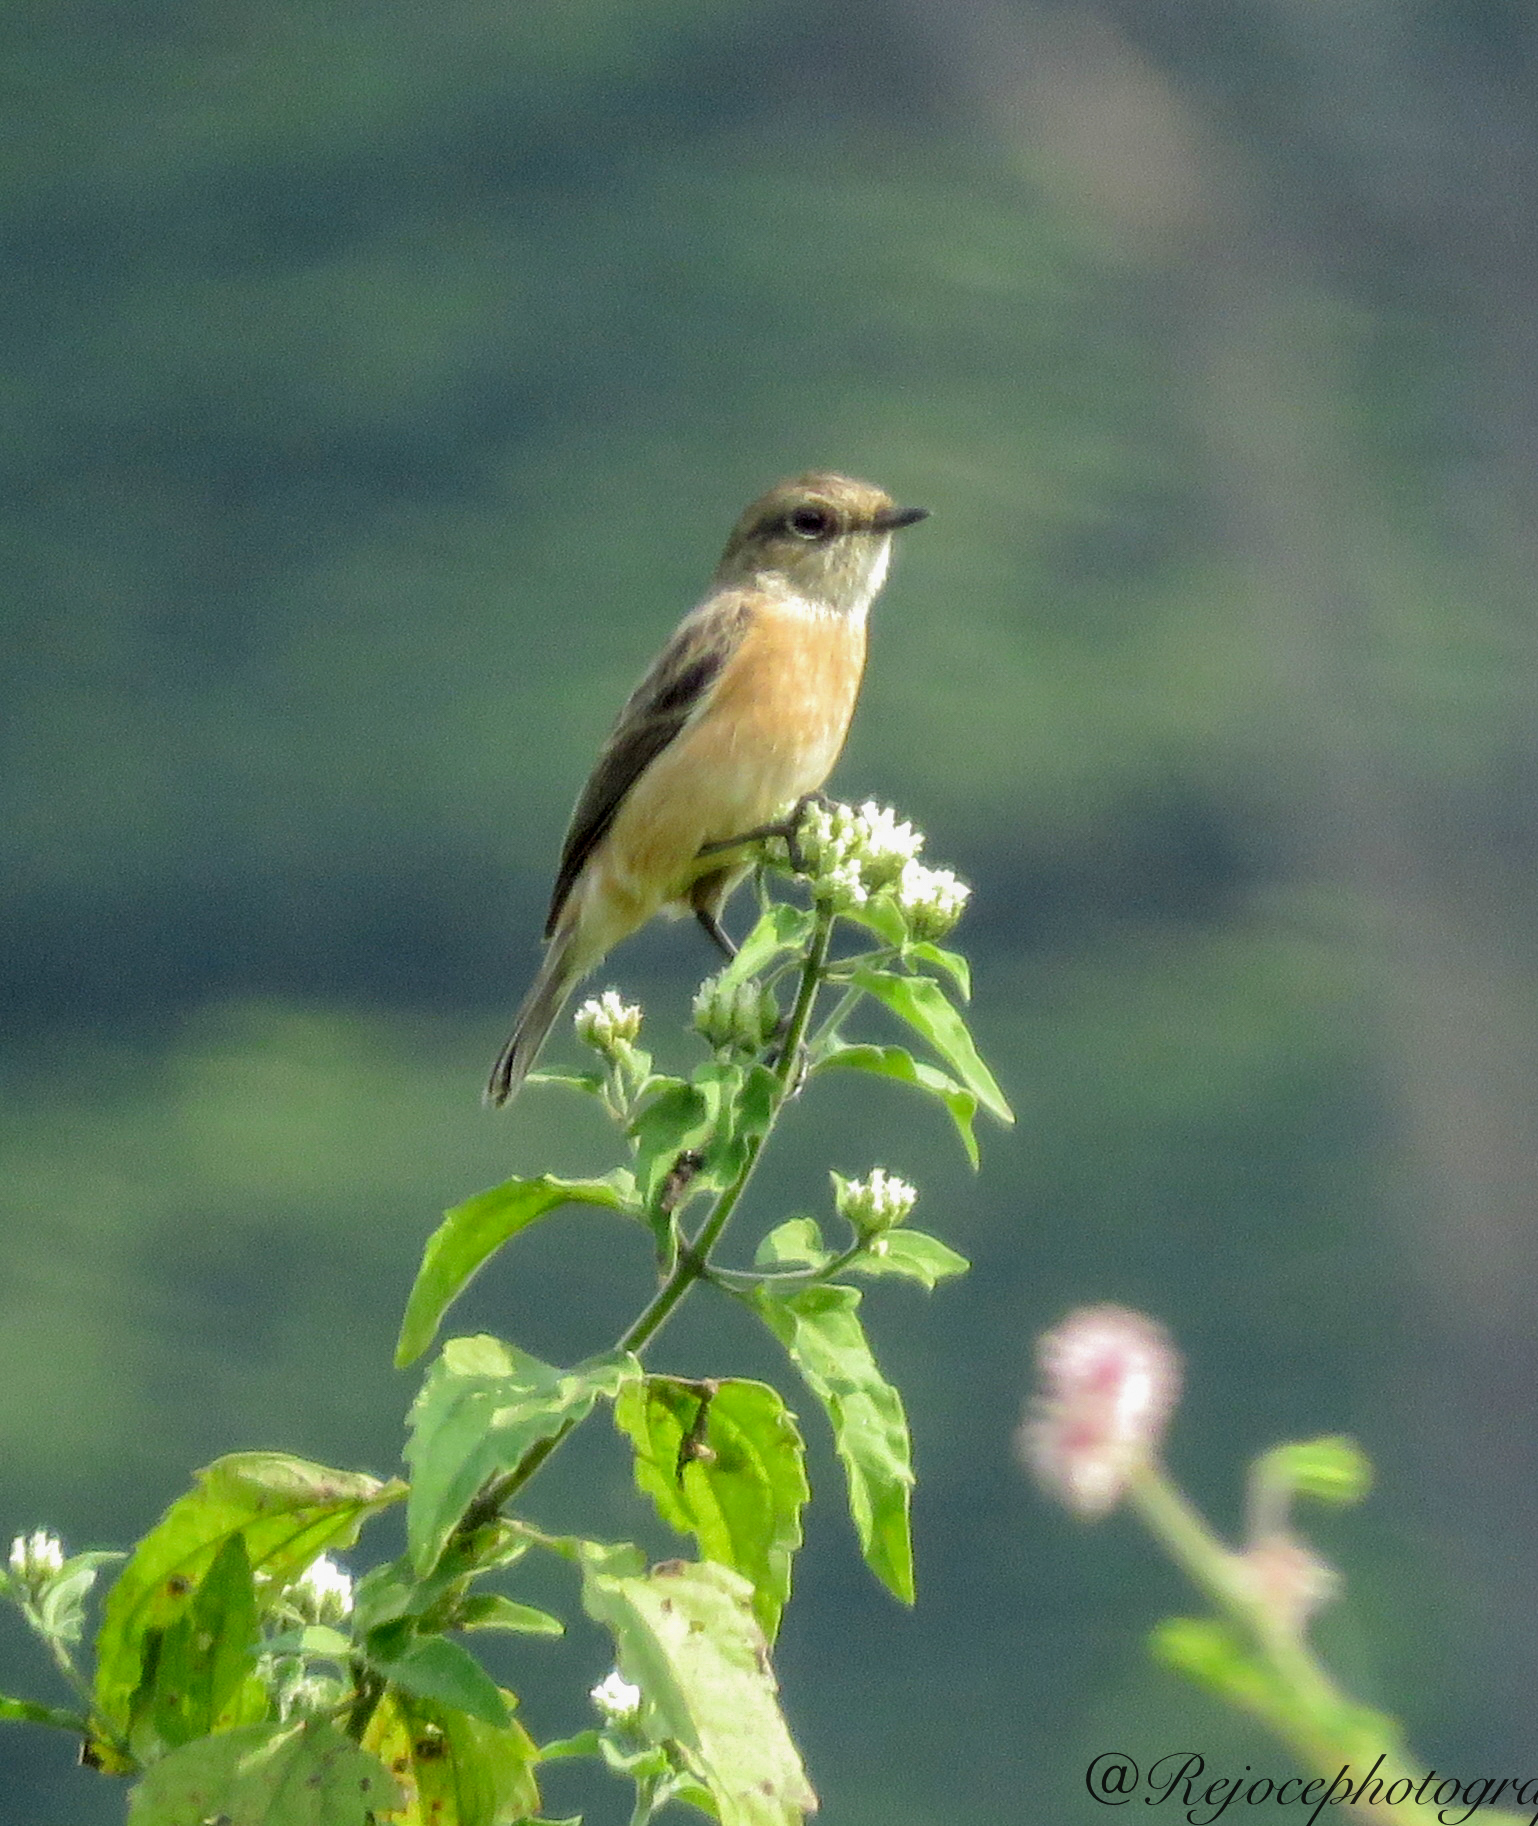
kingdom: Animalia
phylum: Chordata
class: Aves
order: Passeriformes
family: Muscicapidae
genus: Saxicola
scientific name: Saxicola maurus
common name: Siberian stonechat
